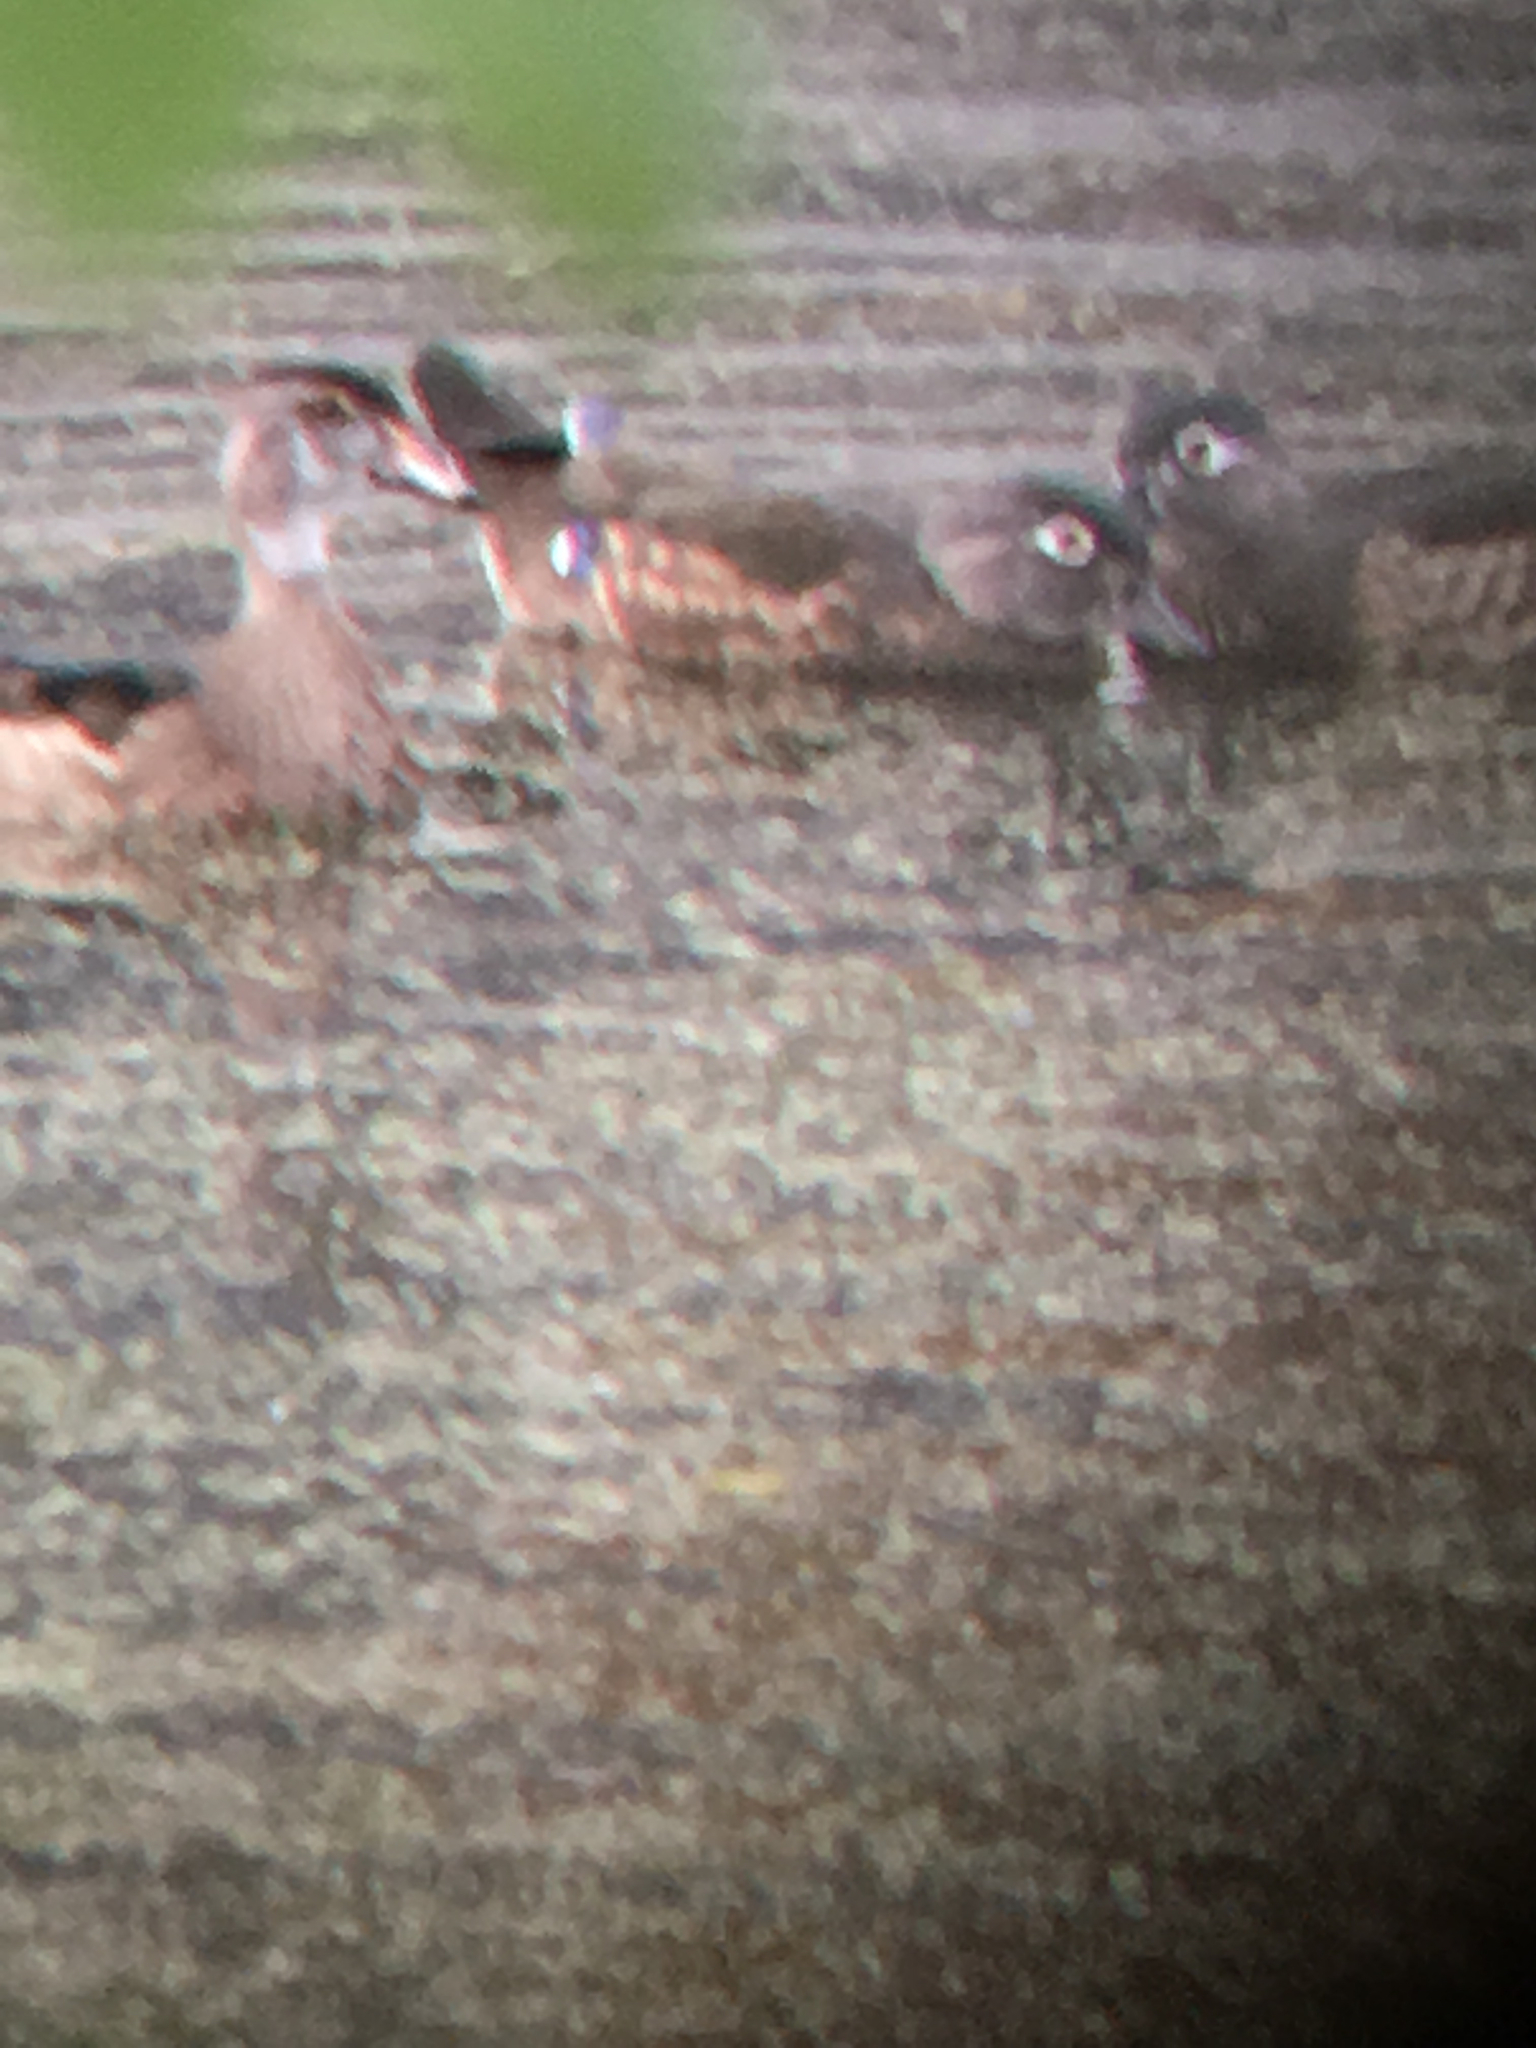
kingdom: Animalia
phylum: Chordata
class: Aves
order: Anseriformes
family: Anatidae
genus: Aix
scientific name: Aix sponsa
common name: Wood duck
